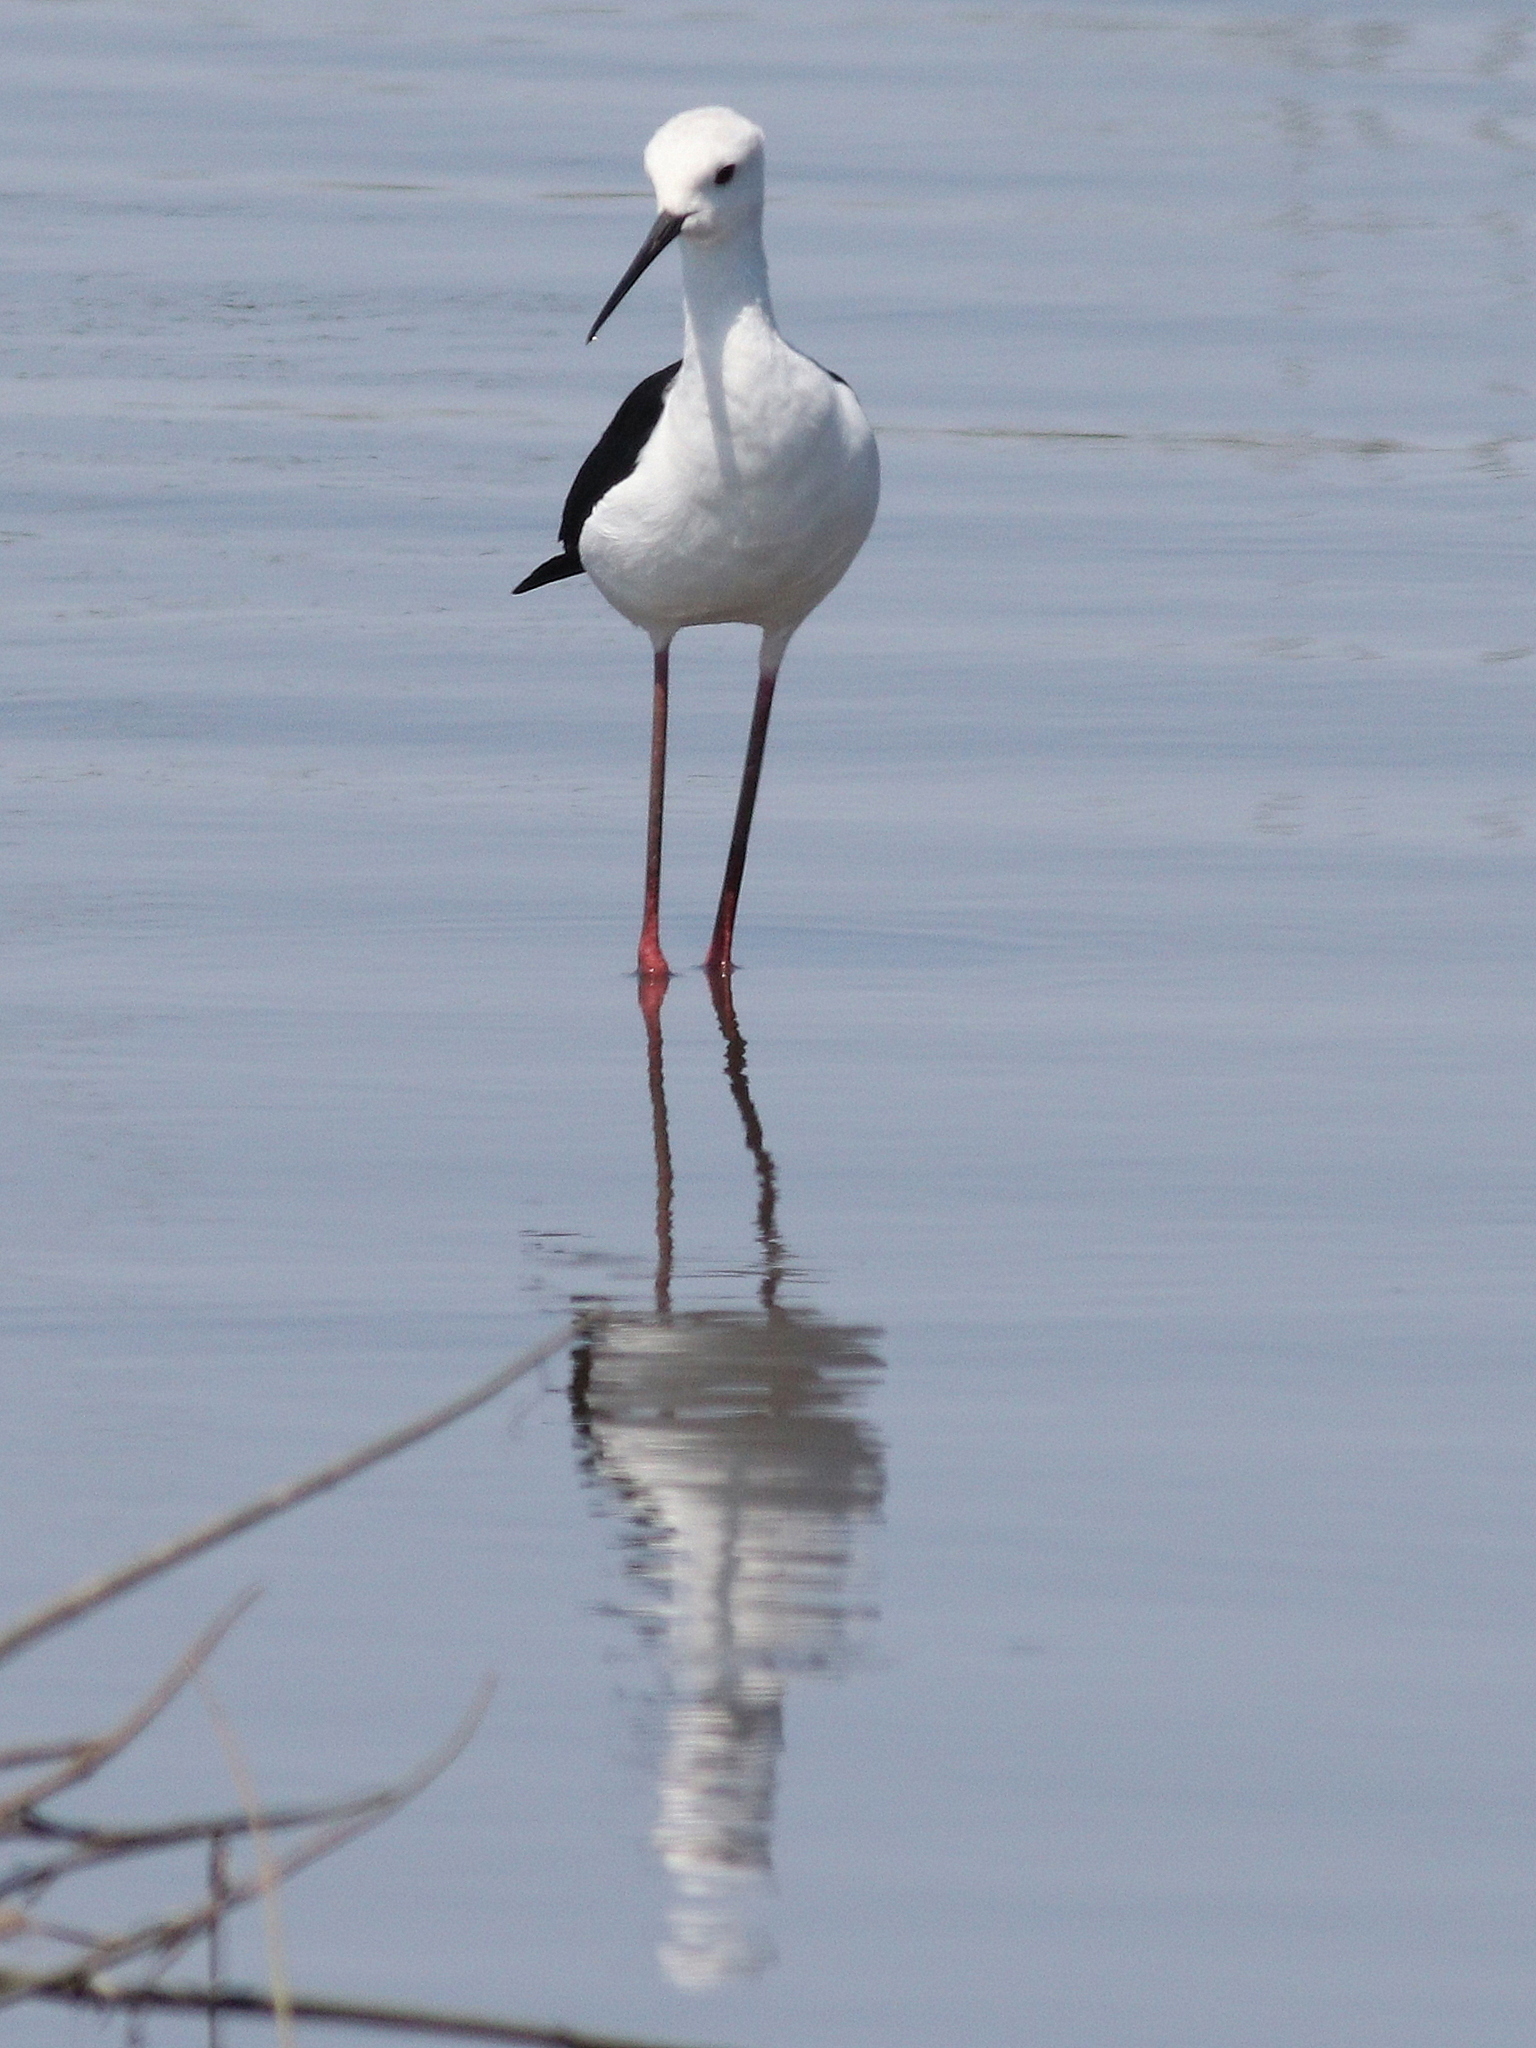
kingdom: Animalia
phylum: Chordata
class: Aves
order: Charadriiformes
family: Recurvirostridae
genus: Himantopus
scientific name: Himantopus himantopus
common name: Black-winged stilt
